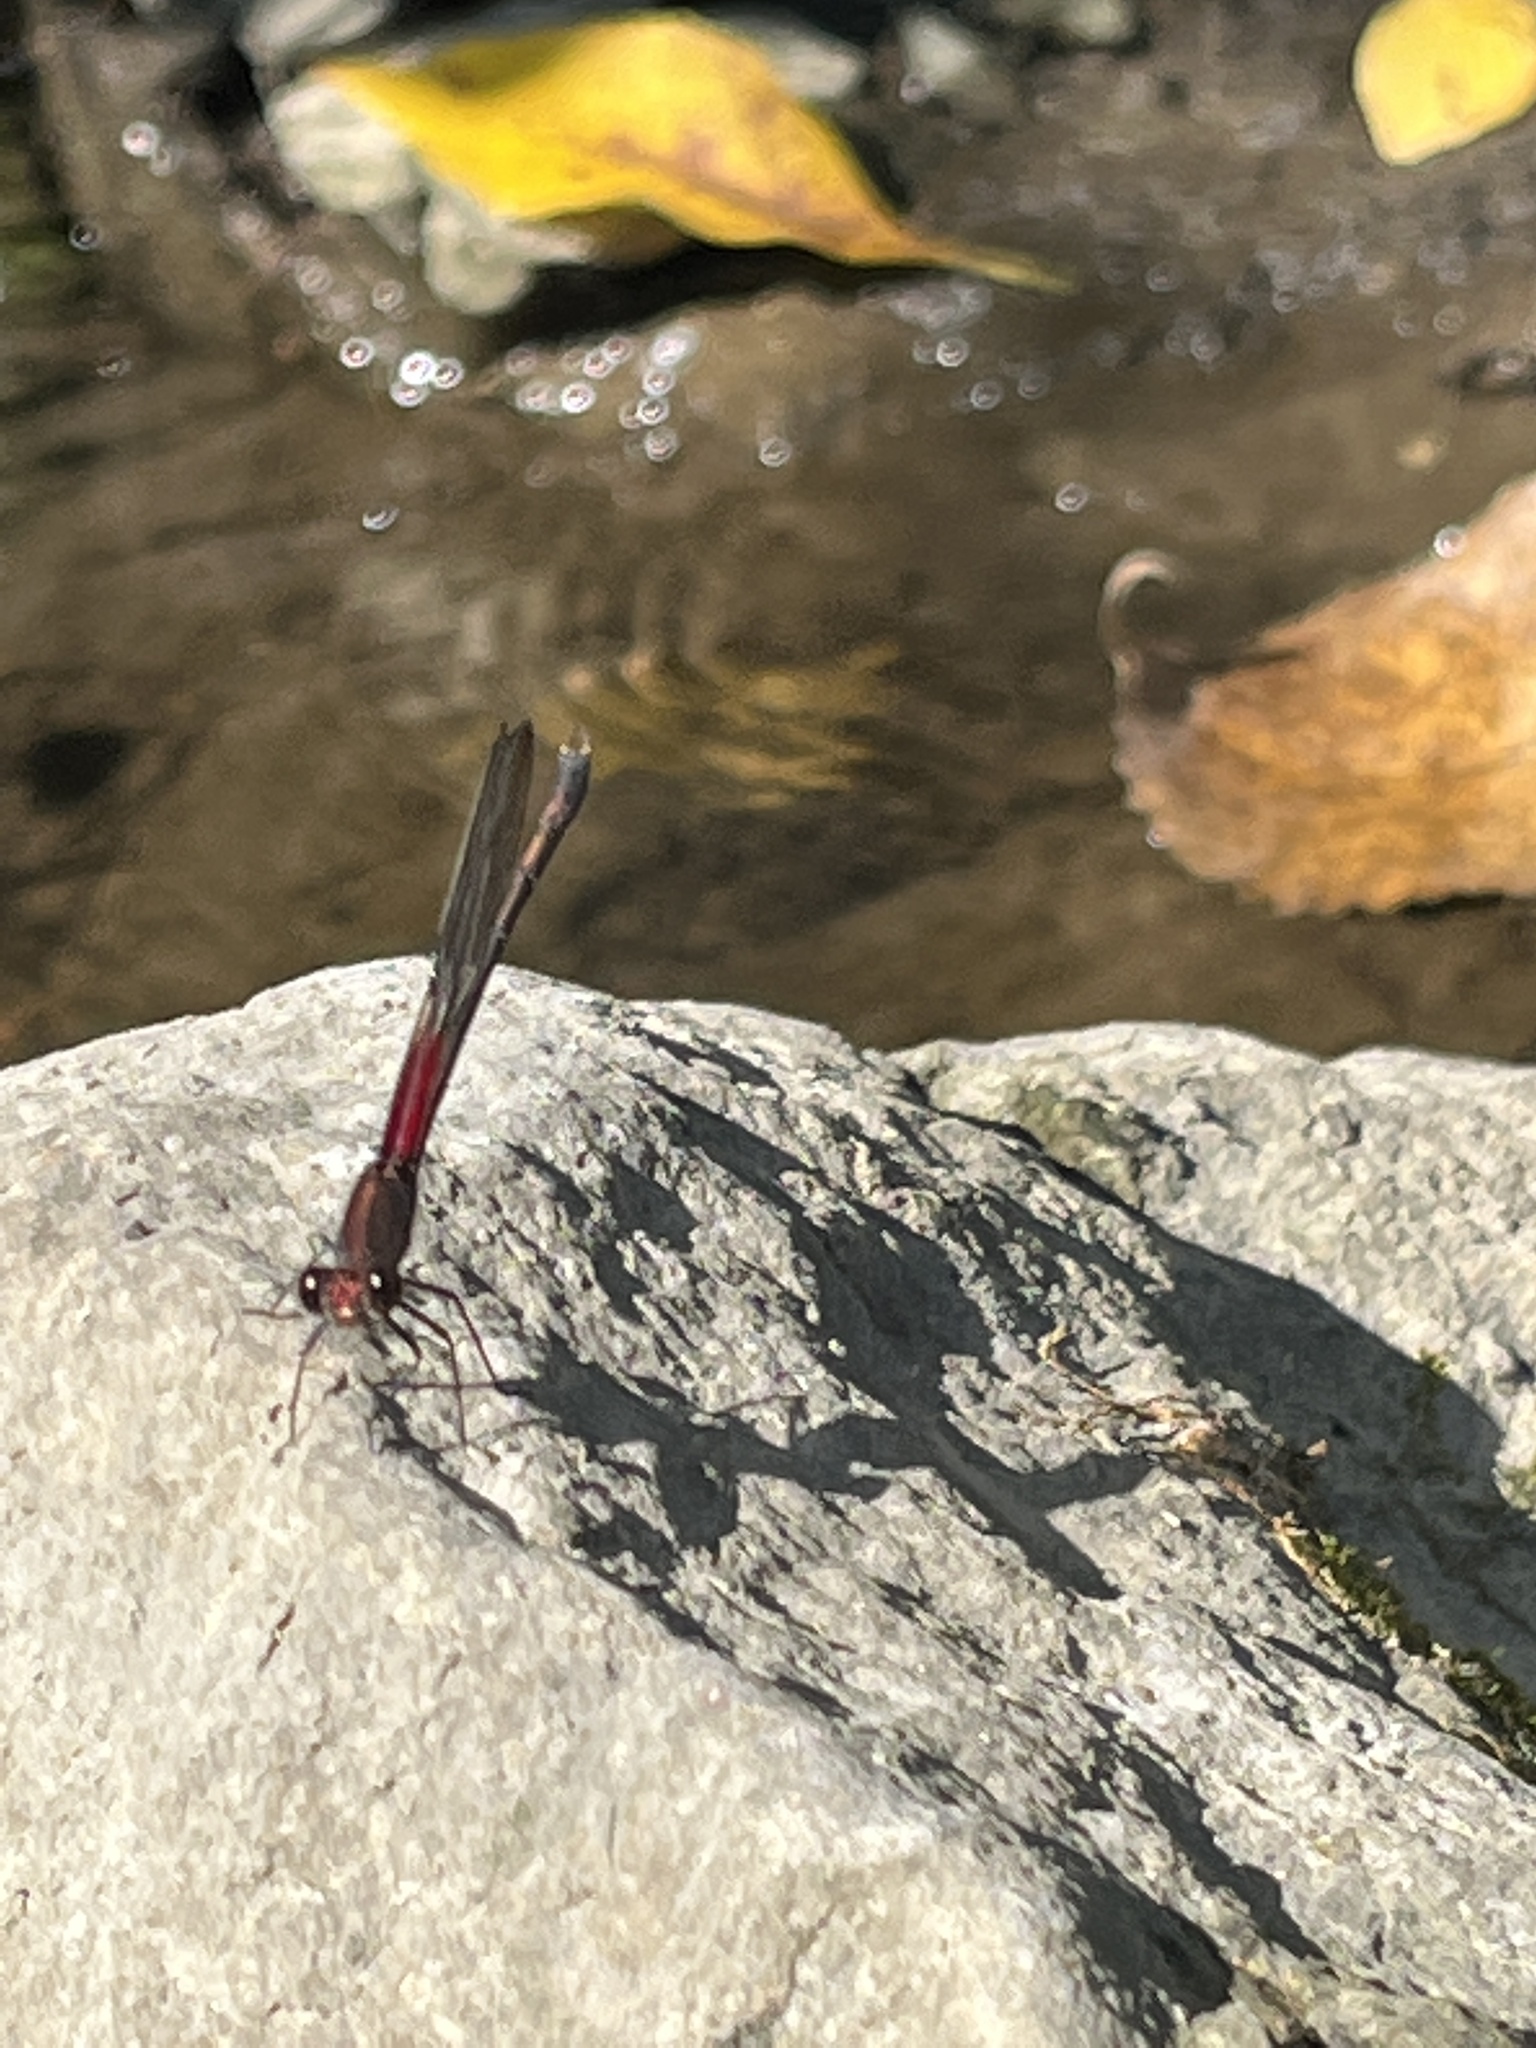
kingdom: Animalia
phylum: Arthropoda
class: Insecta
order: Odonata
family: Calopterygidae
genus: Hetaerina
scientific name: Hetaerina americana
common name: American rubyspot
